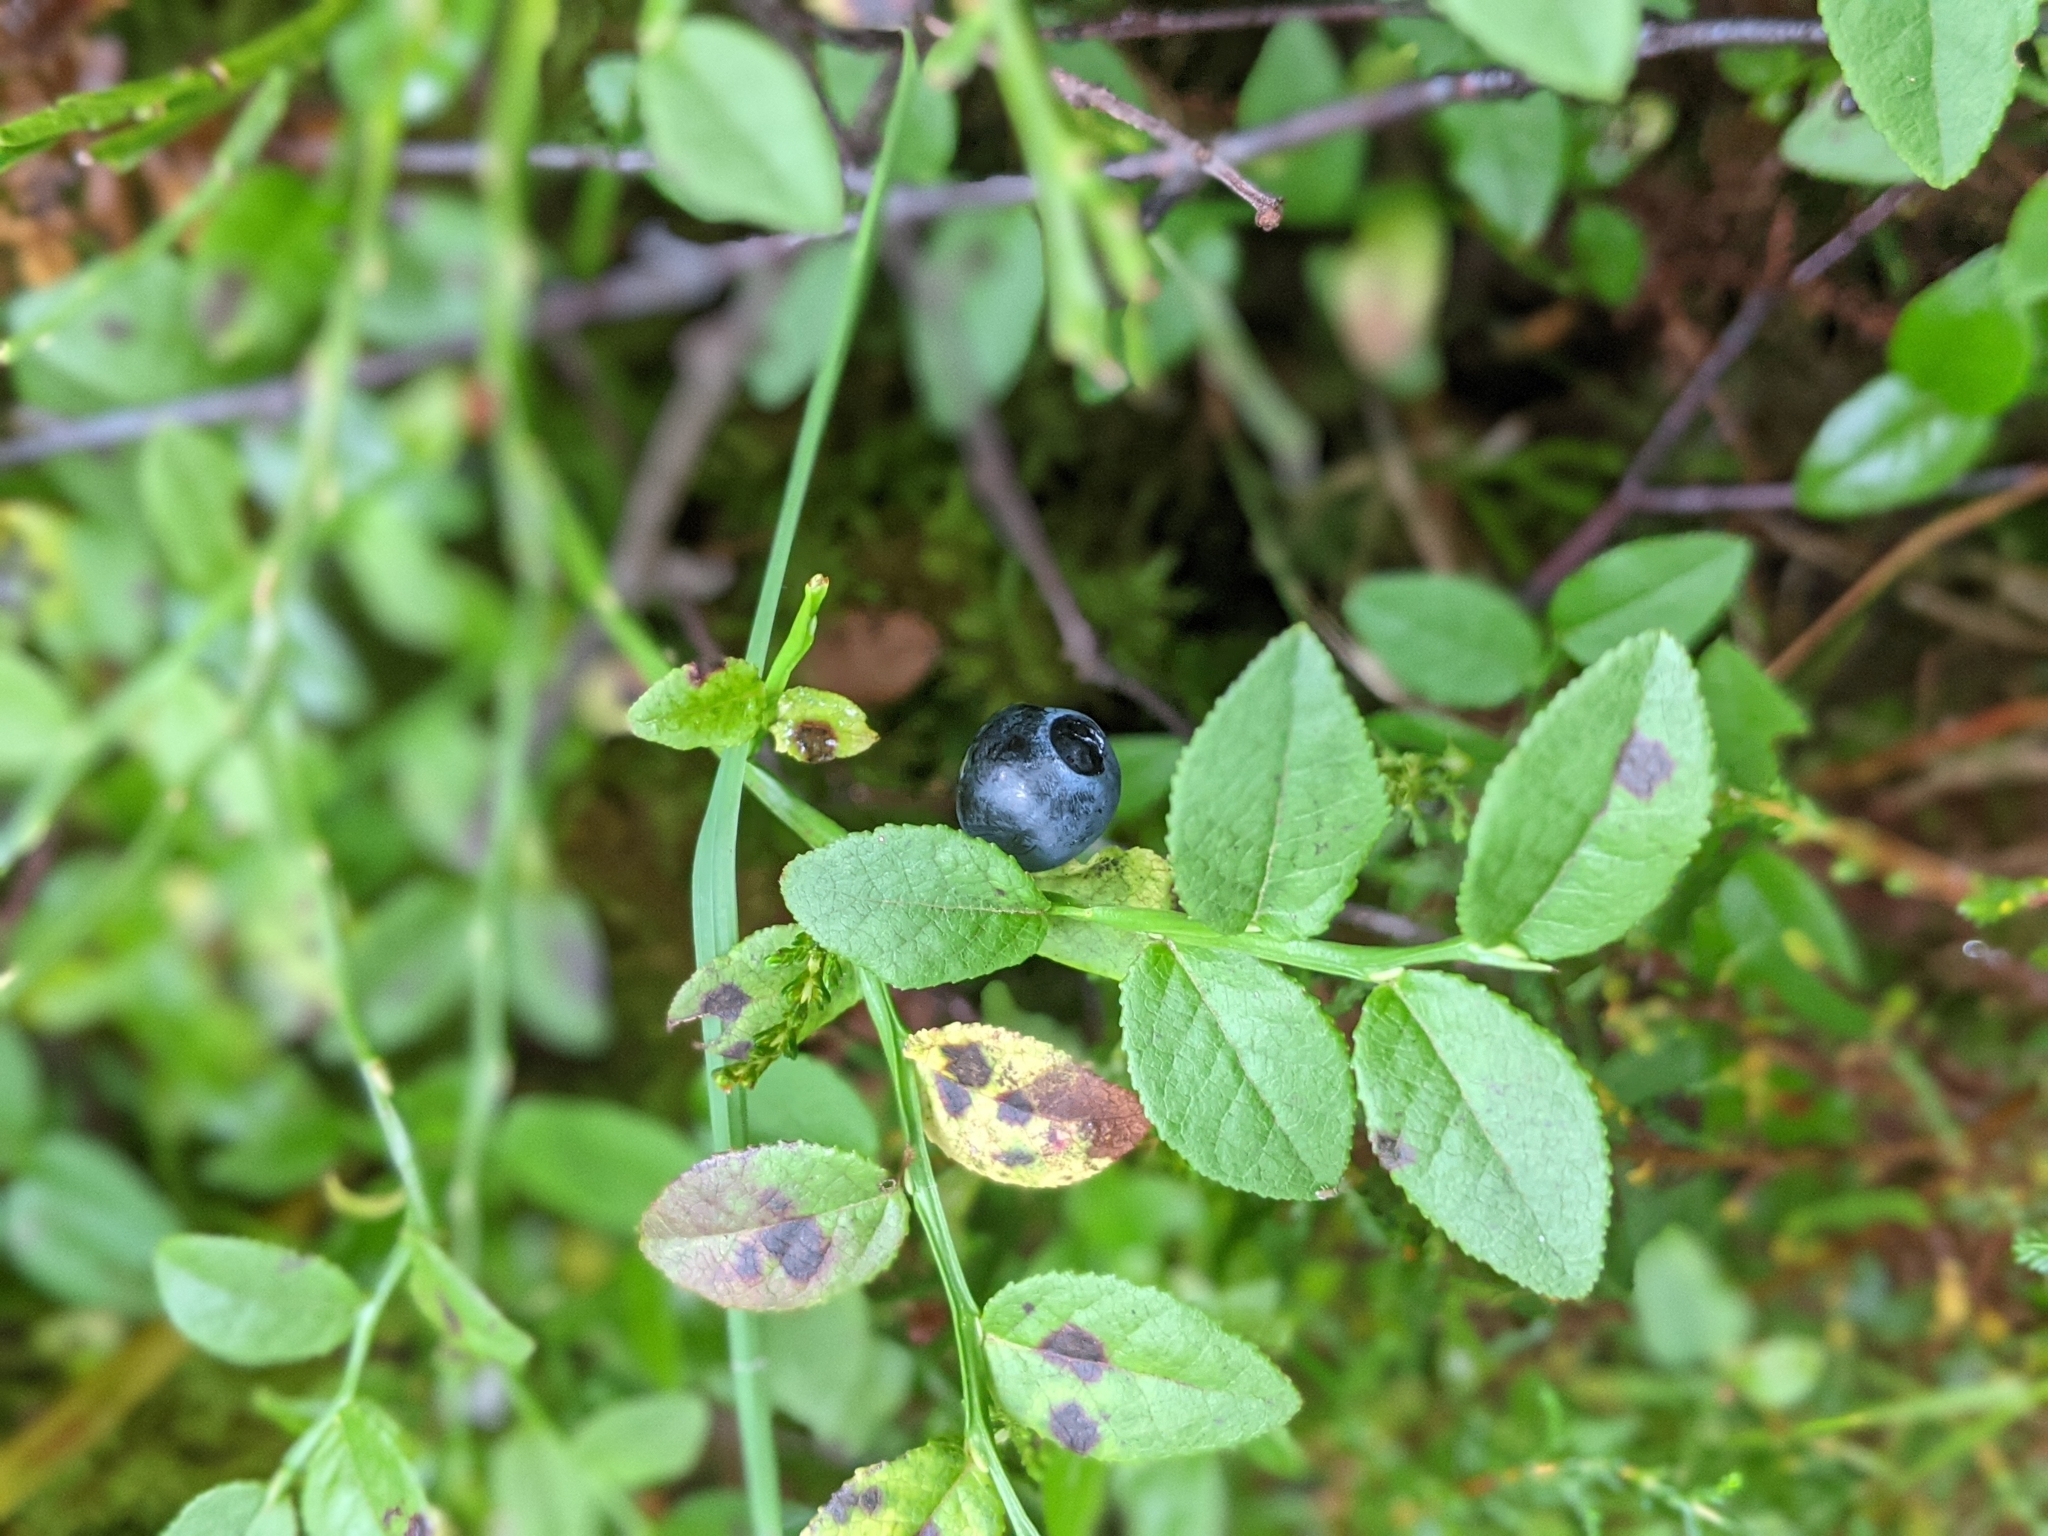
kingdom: Plantae
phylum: Tracheophyta
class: Magnoliopsida
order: Ericales
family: Ericaceae
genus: Vaccinium
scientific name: Vaccinium myrtillus
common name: Bilberry
